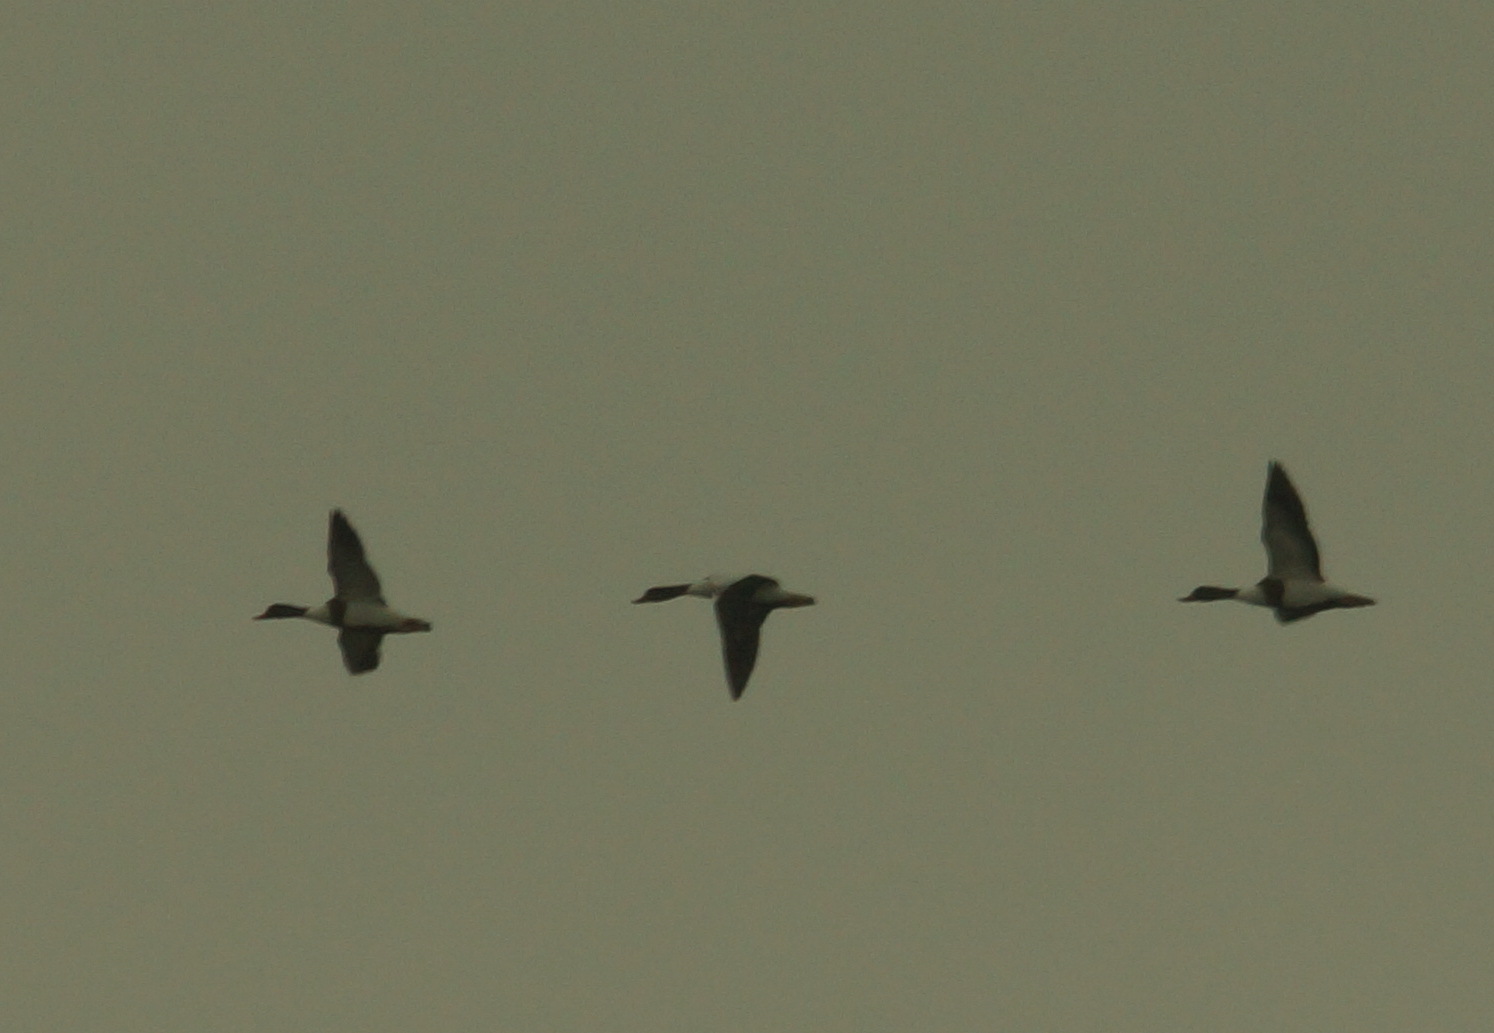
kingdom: Animalia
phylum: Chordata
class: Aves
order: Anseriformes
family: Anatidae
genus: Tadorna
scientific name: Tadorna tadorna
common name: Common shelduck
